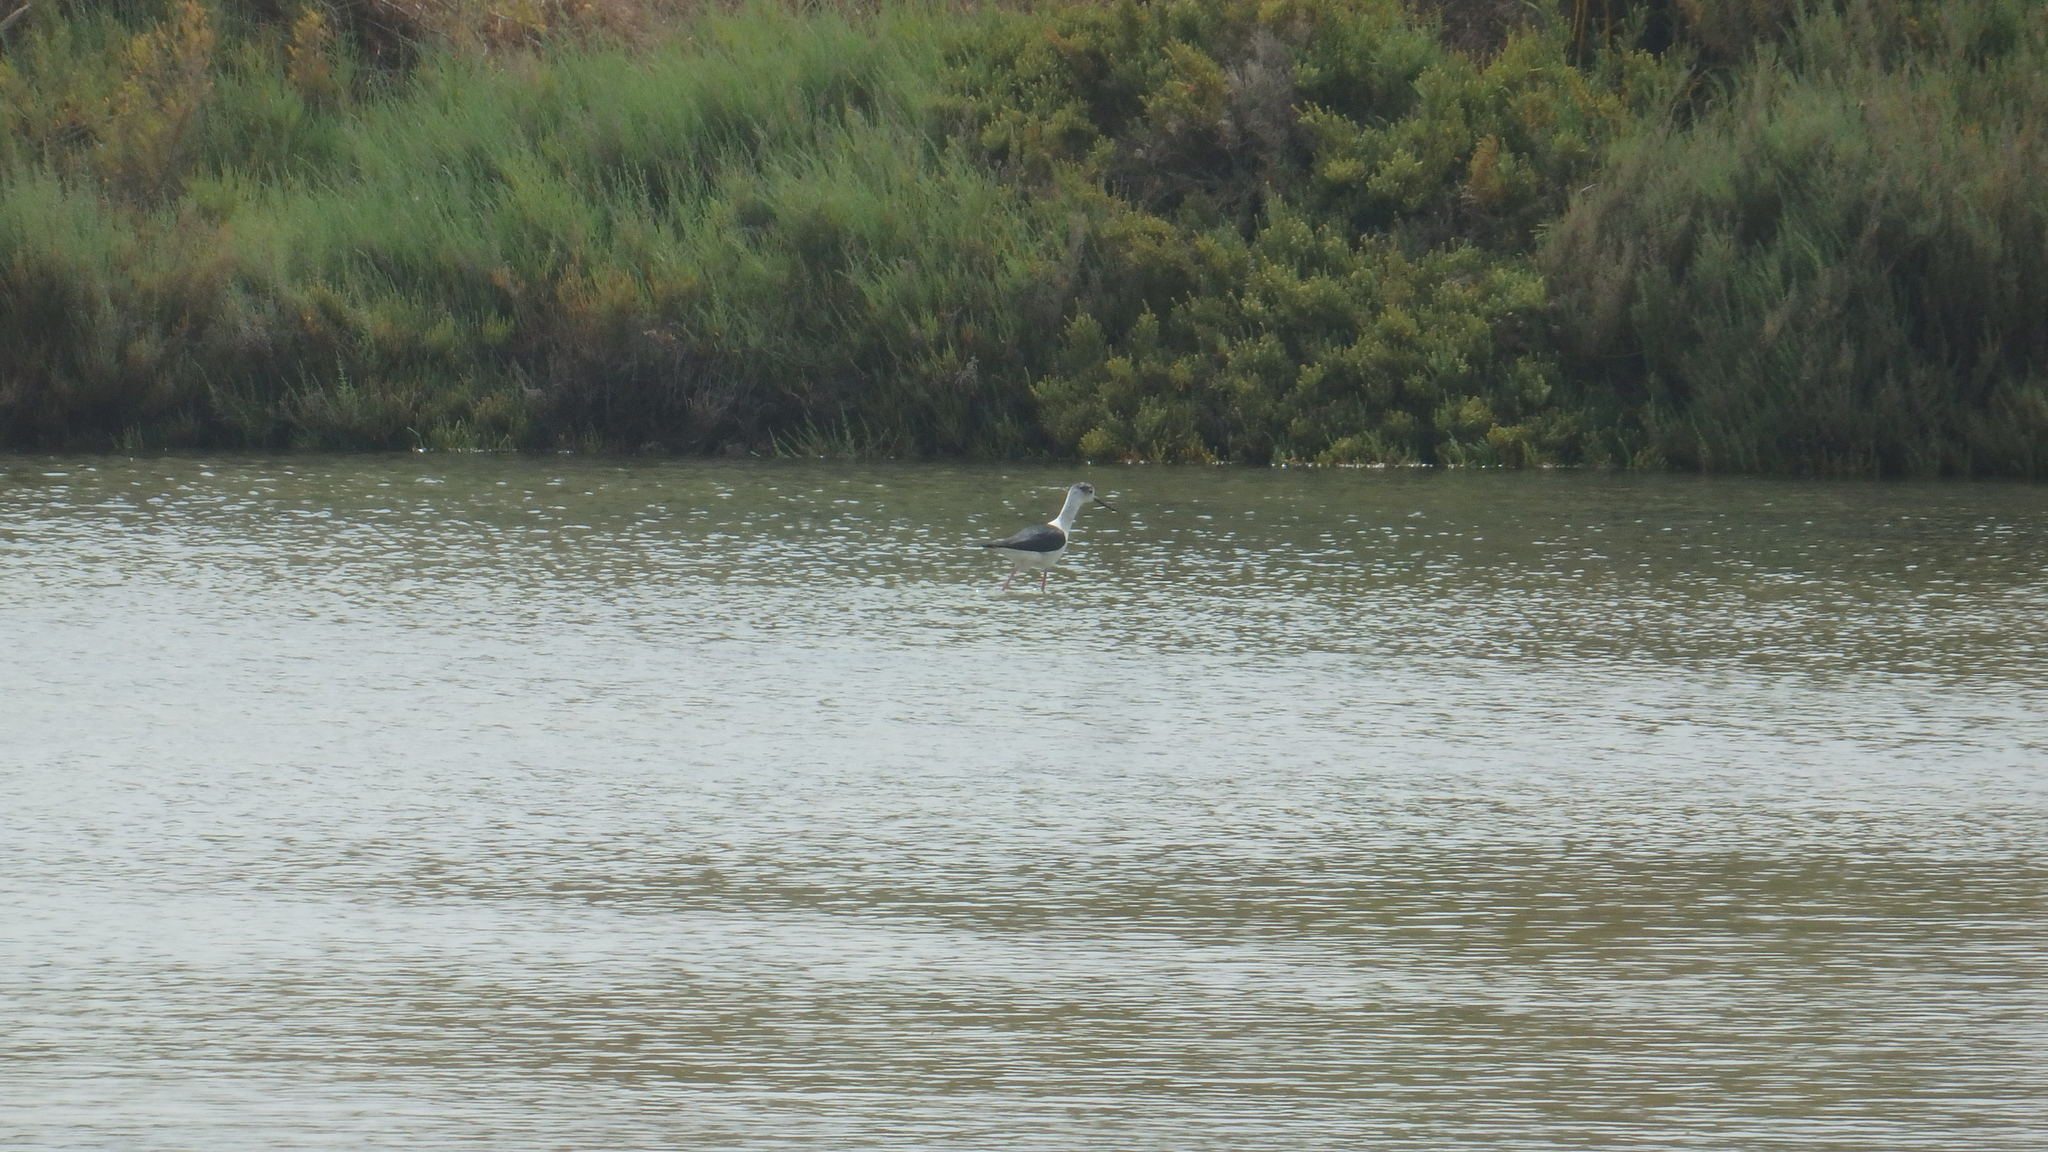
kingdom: Animalia
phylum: Chordata
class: Aves
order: Charadriiformes
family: Recurvirostridae
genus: Himantopus
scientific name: Himantopus himantopus
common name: Black-winged stilt
